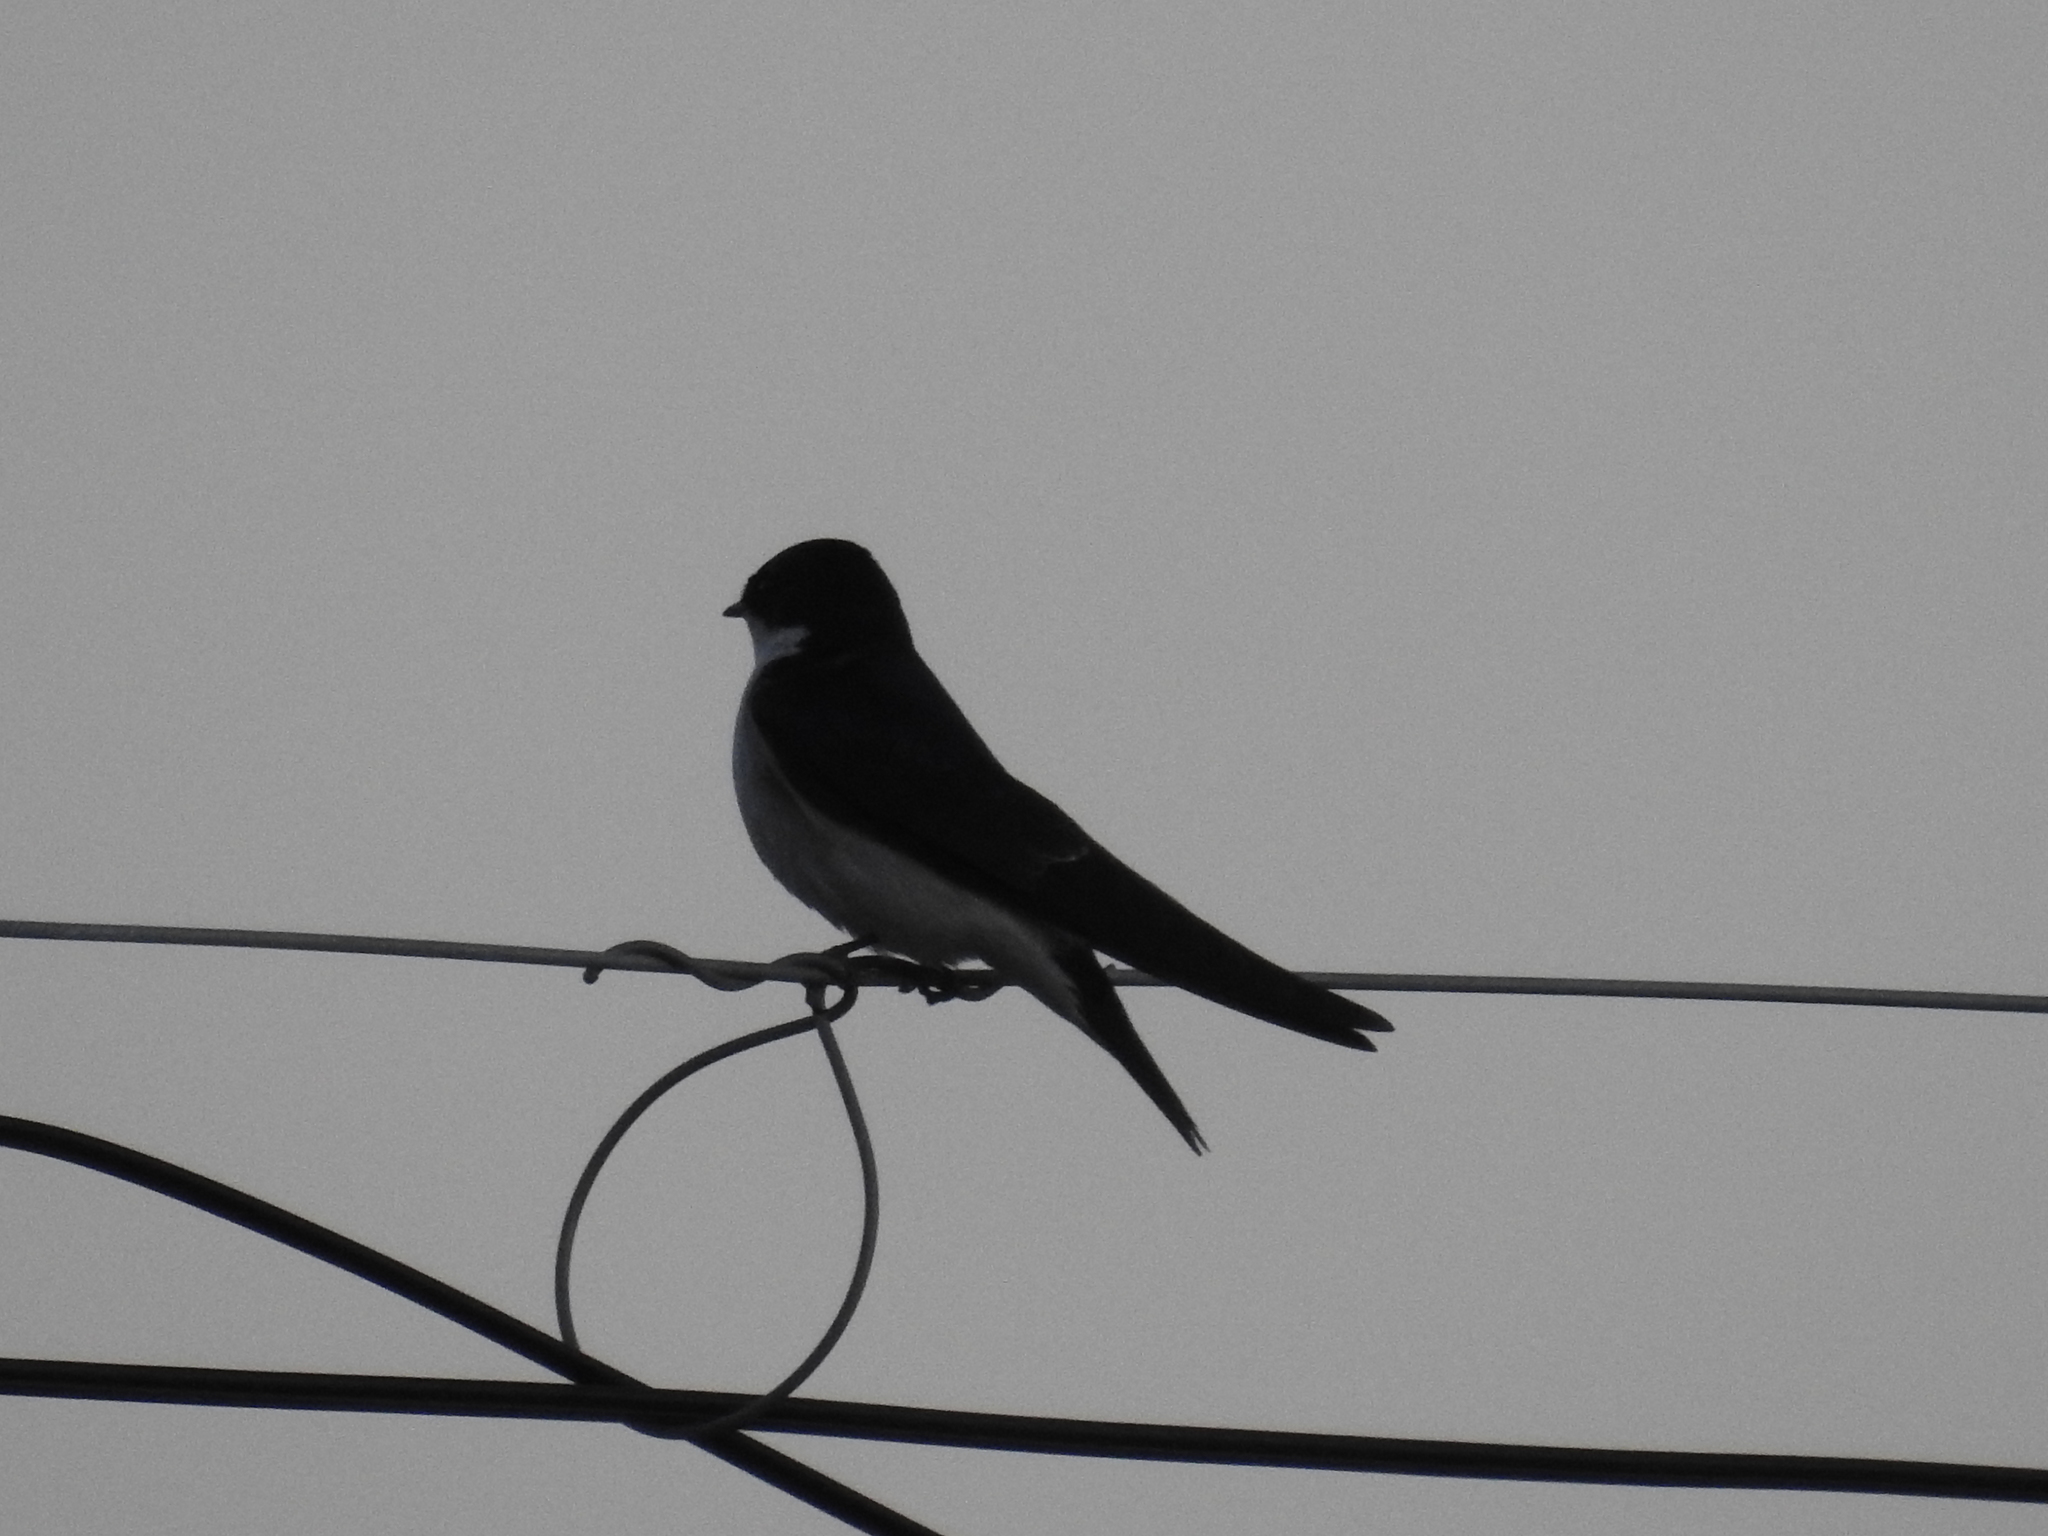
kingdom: Animalia
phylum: Chordata
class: Aves
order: Passeriformes
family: Hirundinidae
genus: Tachycineta
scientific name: Tachycineta leucopyga
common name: Chilean swallow
